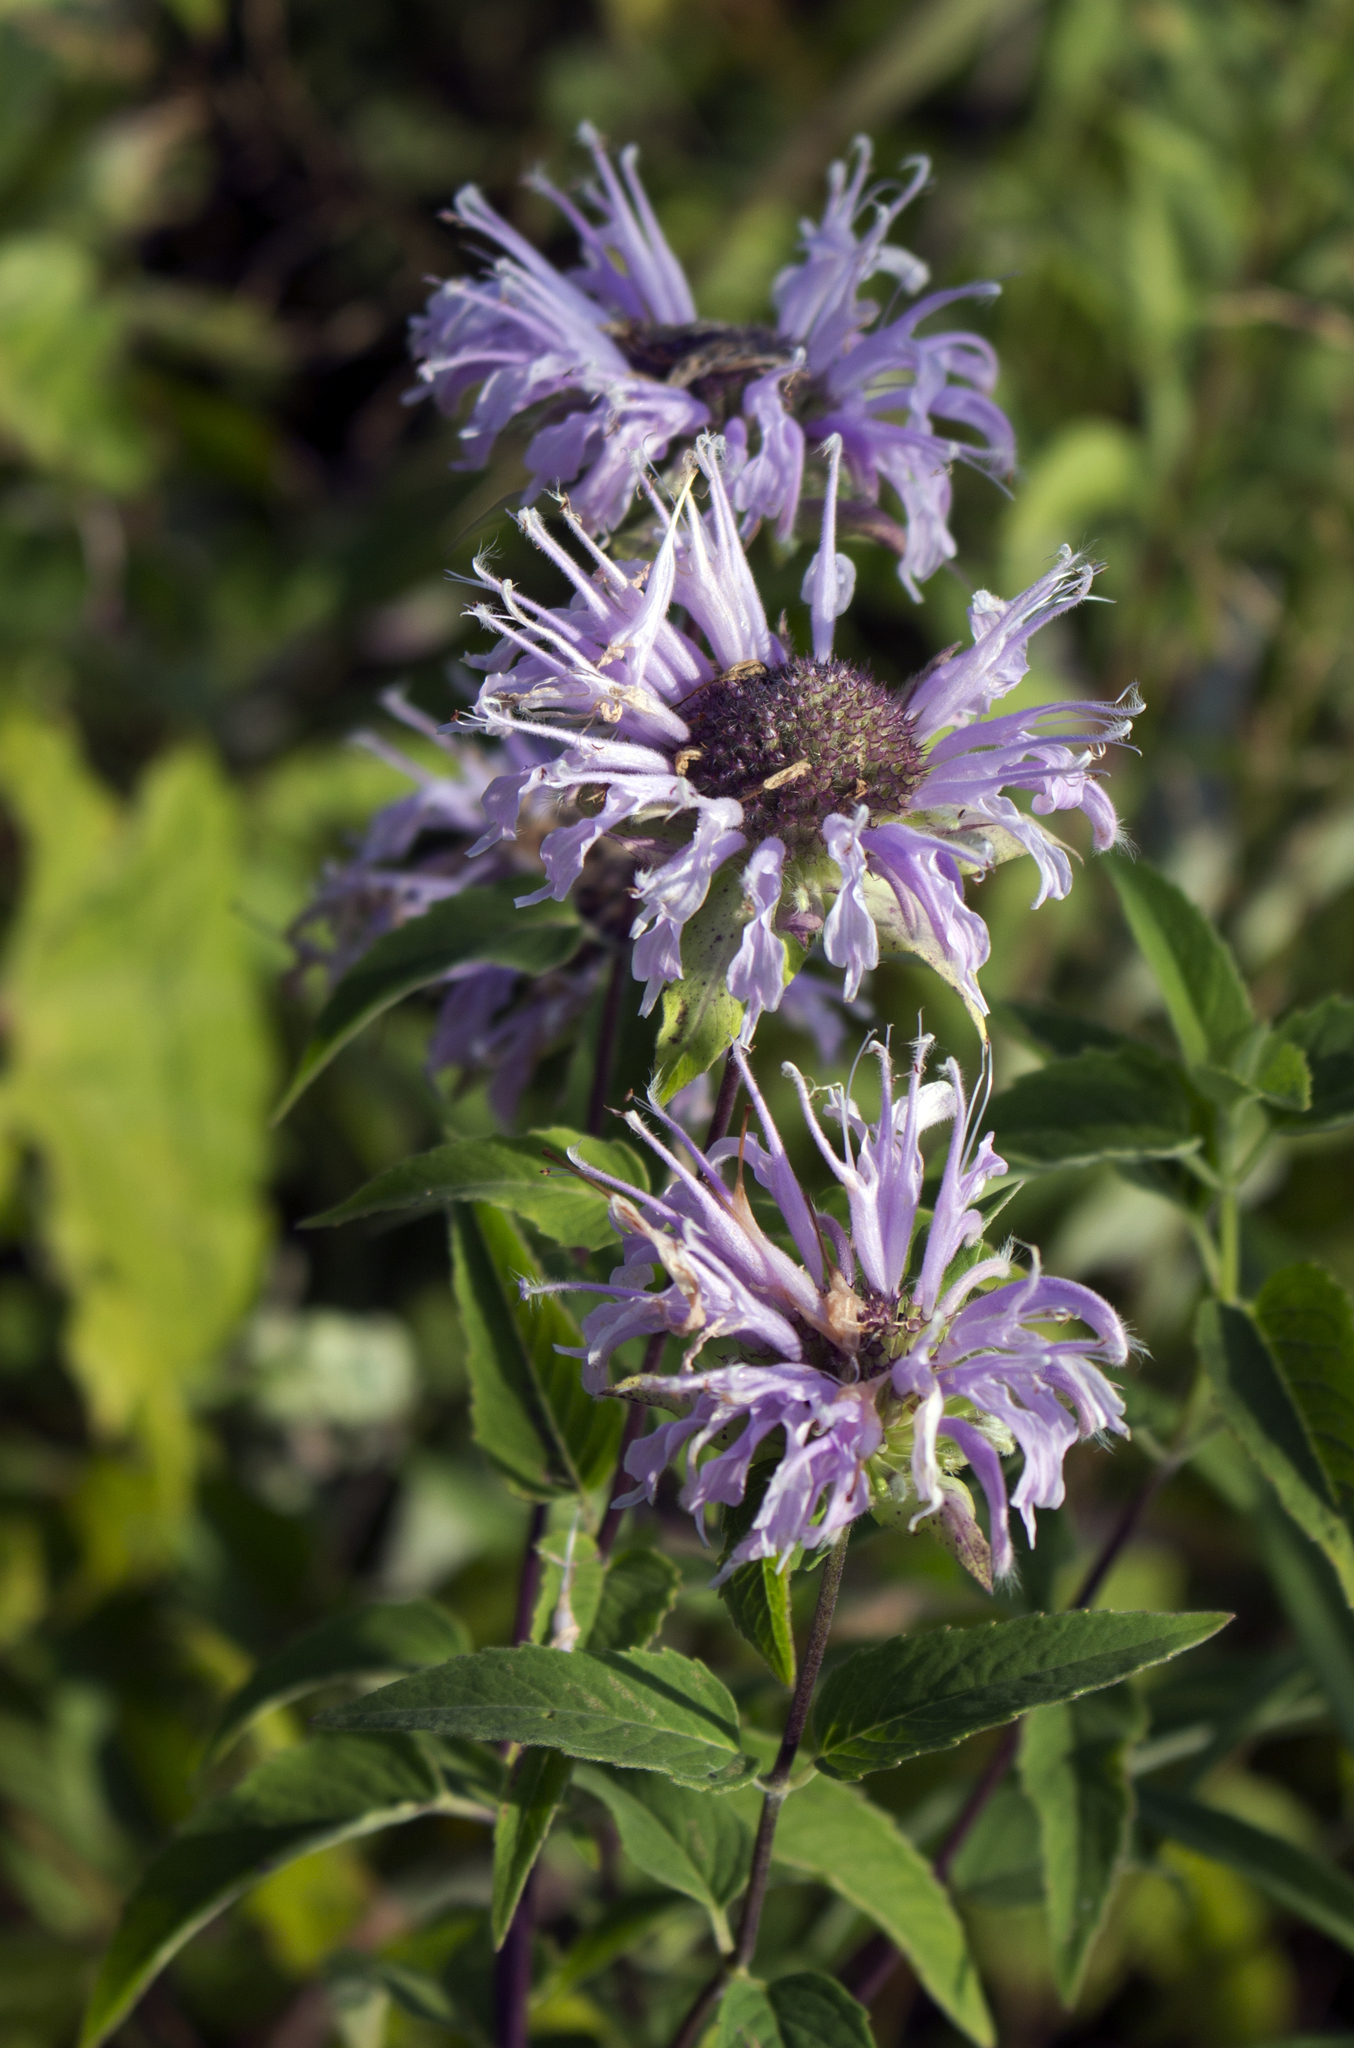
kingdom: Plantae
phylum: Tracheophyta
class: Magnoliopsida
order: Lamiales
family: Lamiaceae
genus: Monarda
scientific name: Monarda fistulosa
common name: Purple beebalm
